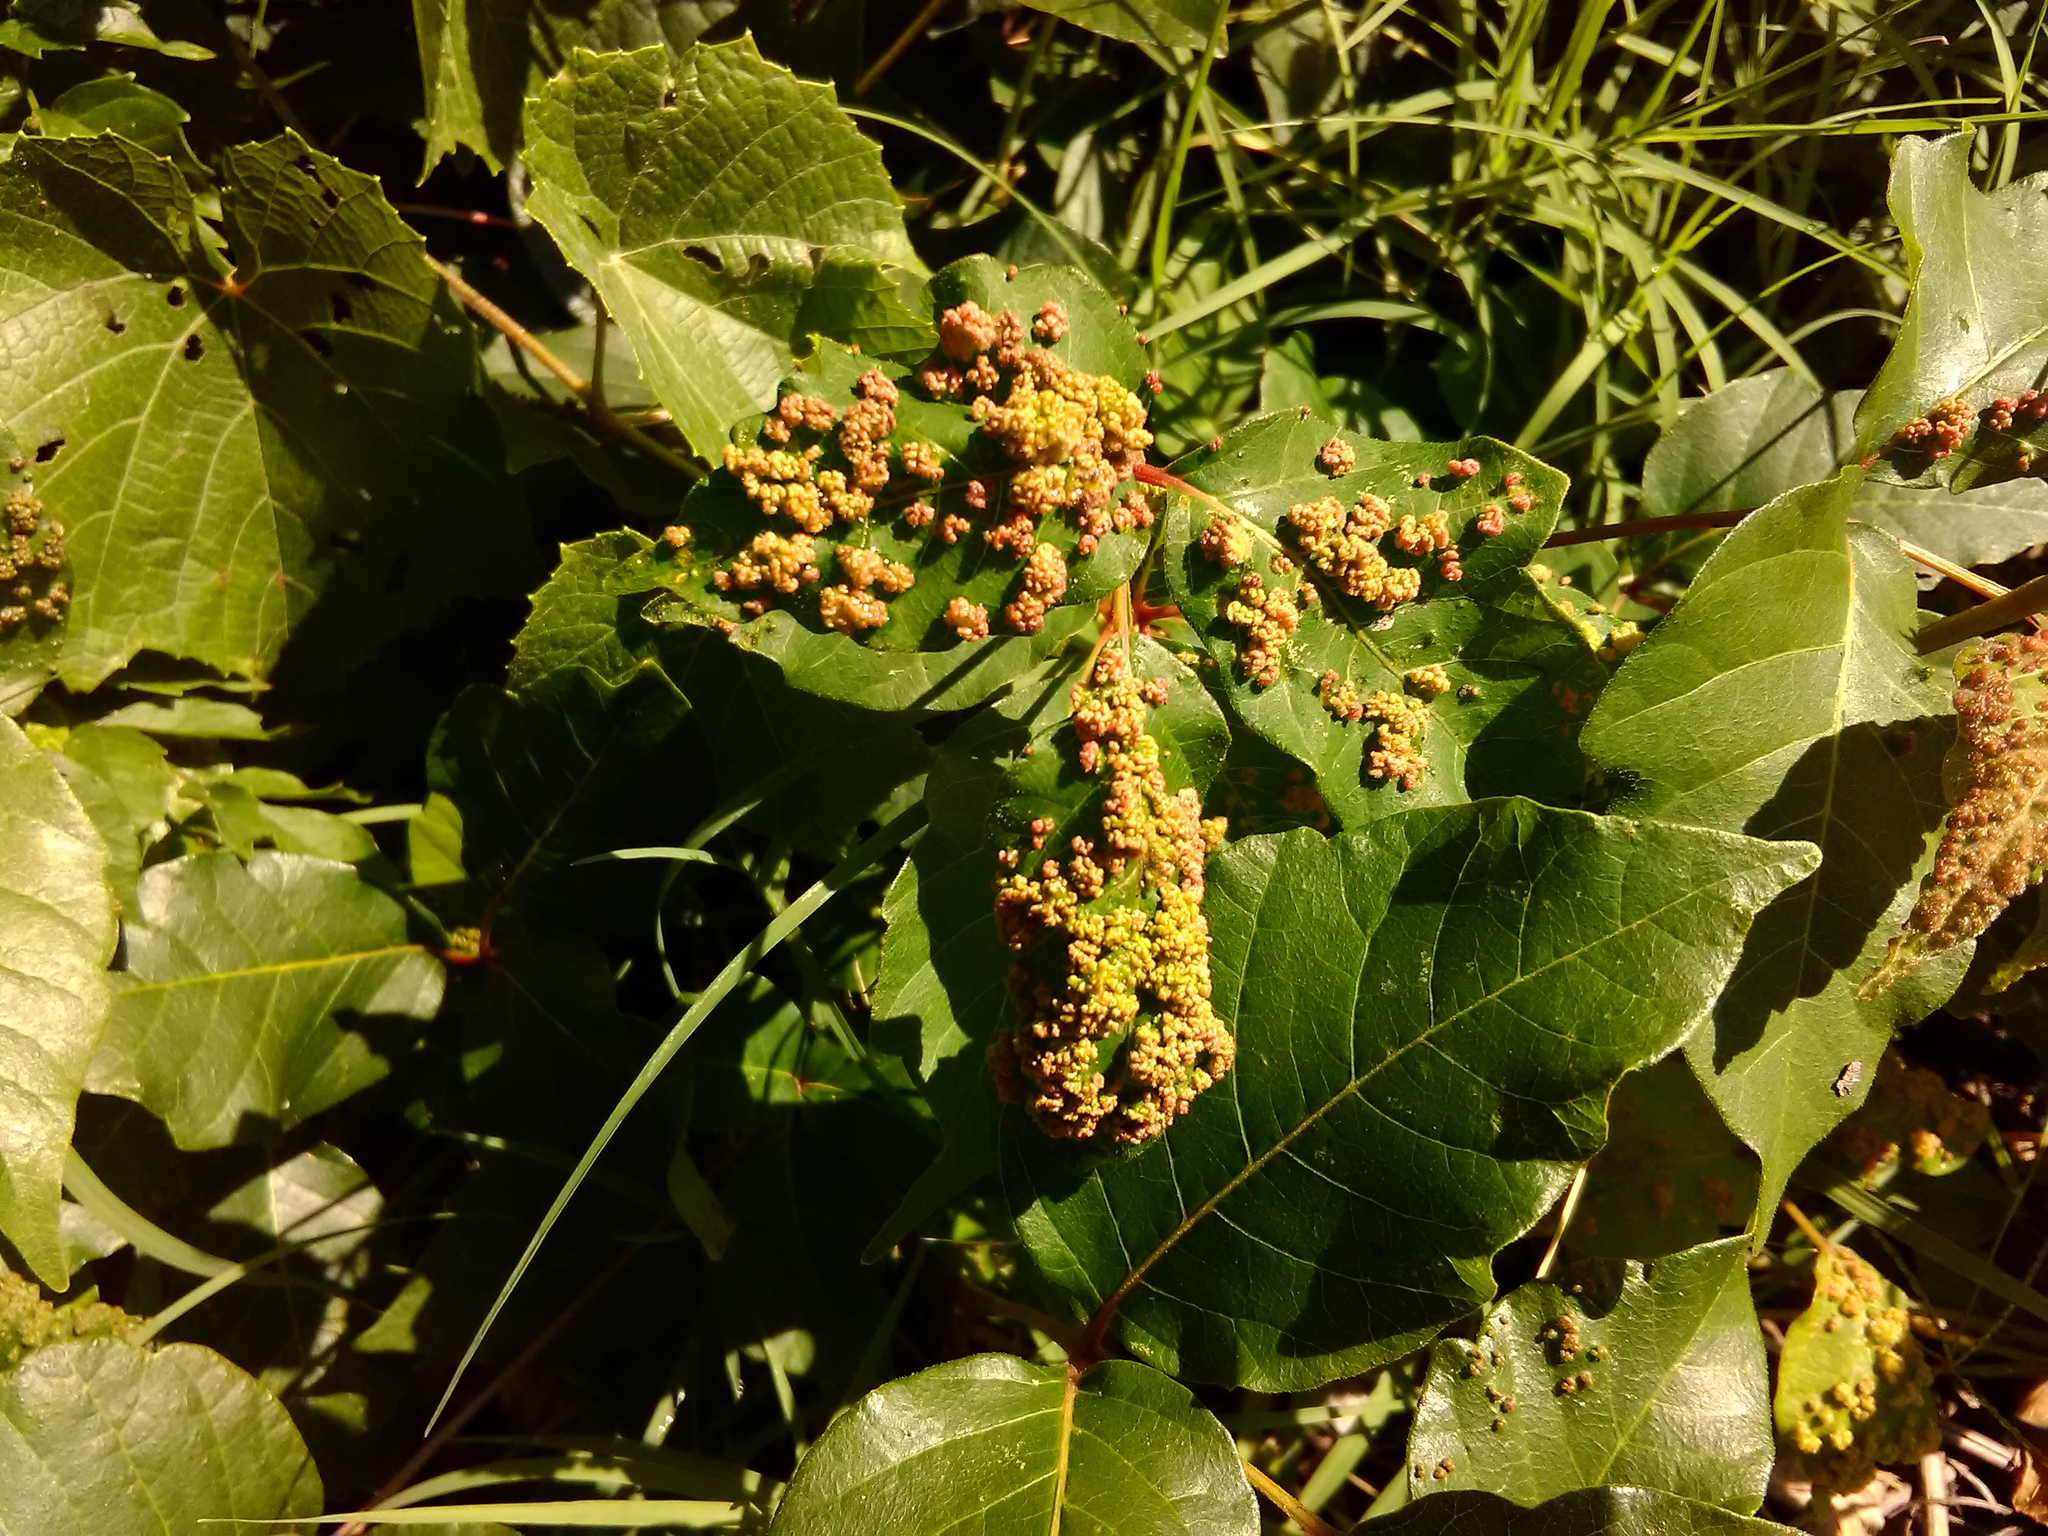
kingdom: Animalia
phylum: Arthropoda
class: Arachnida
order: Trombidiformes
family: Eriophyidae
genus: Aculops
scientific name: Aculops
